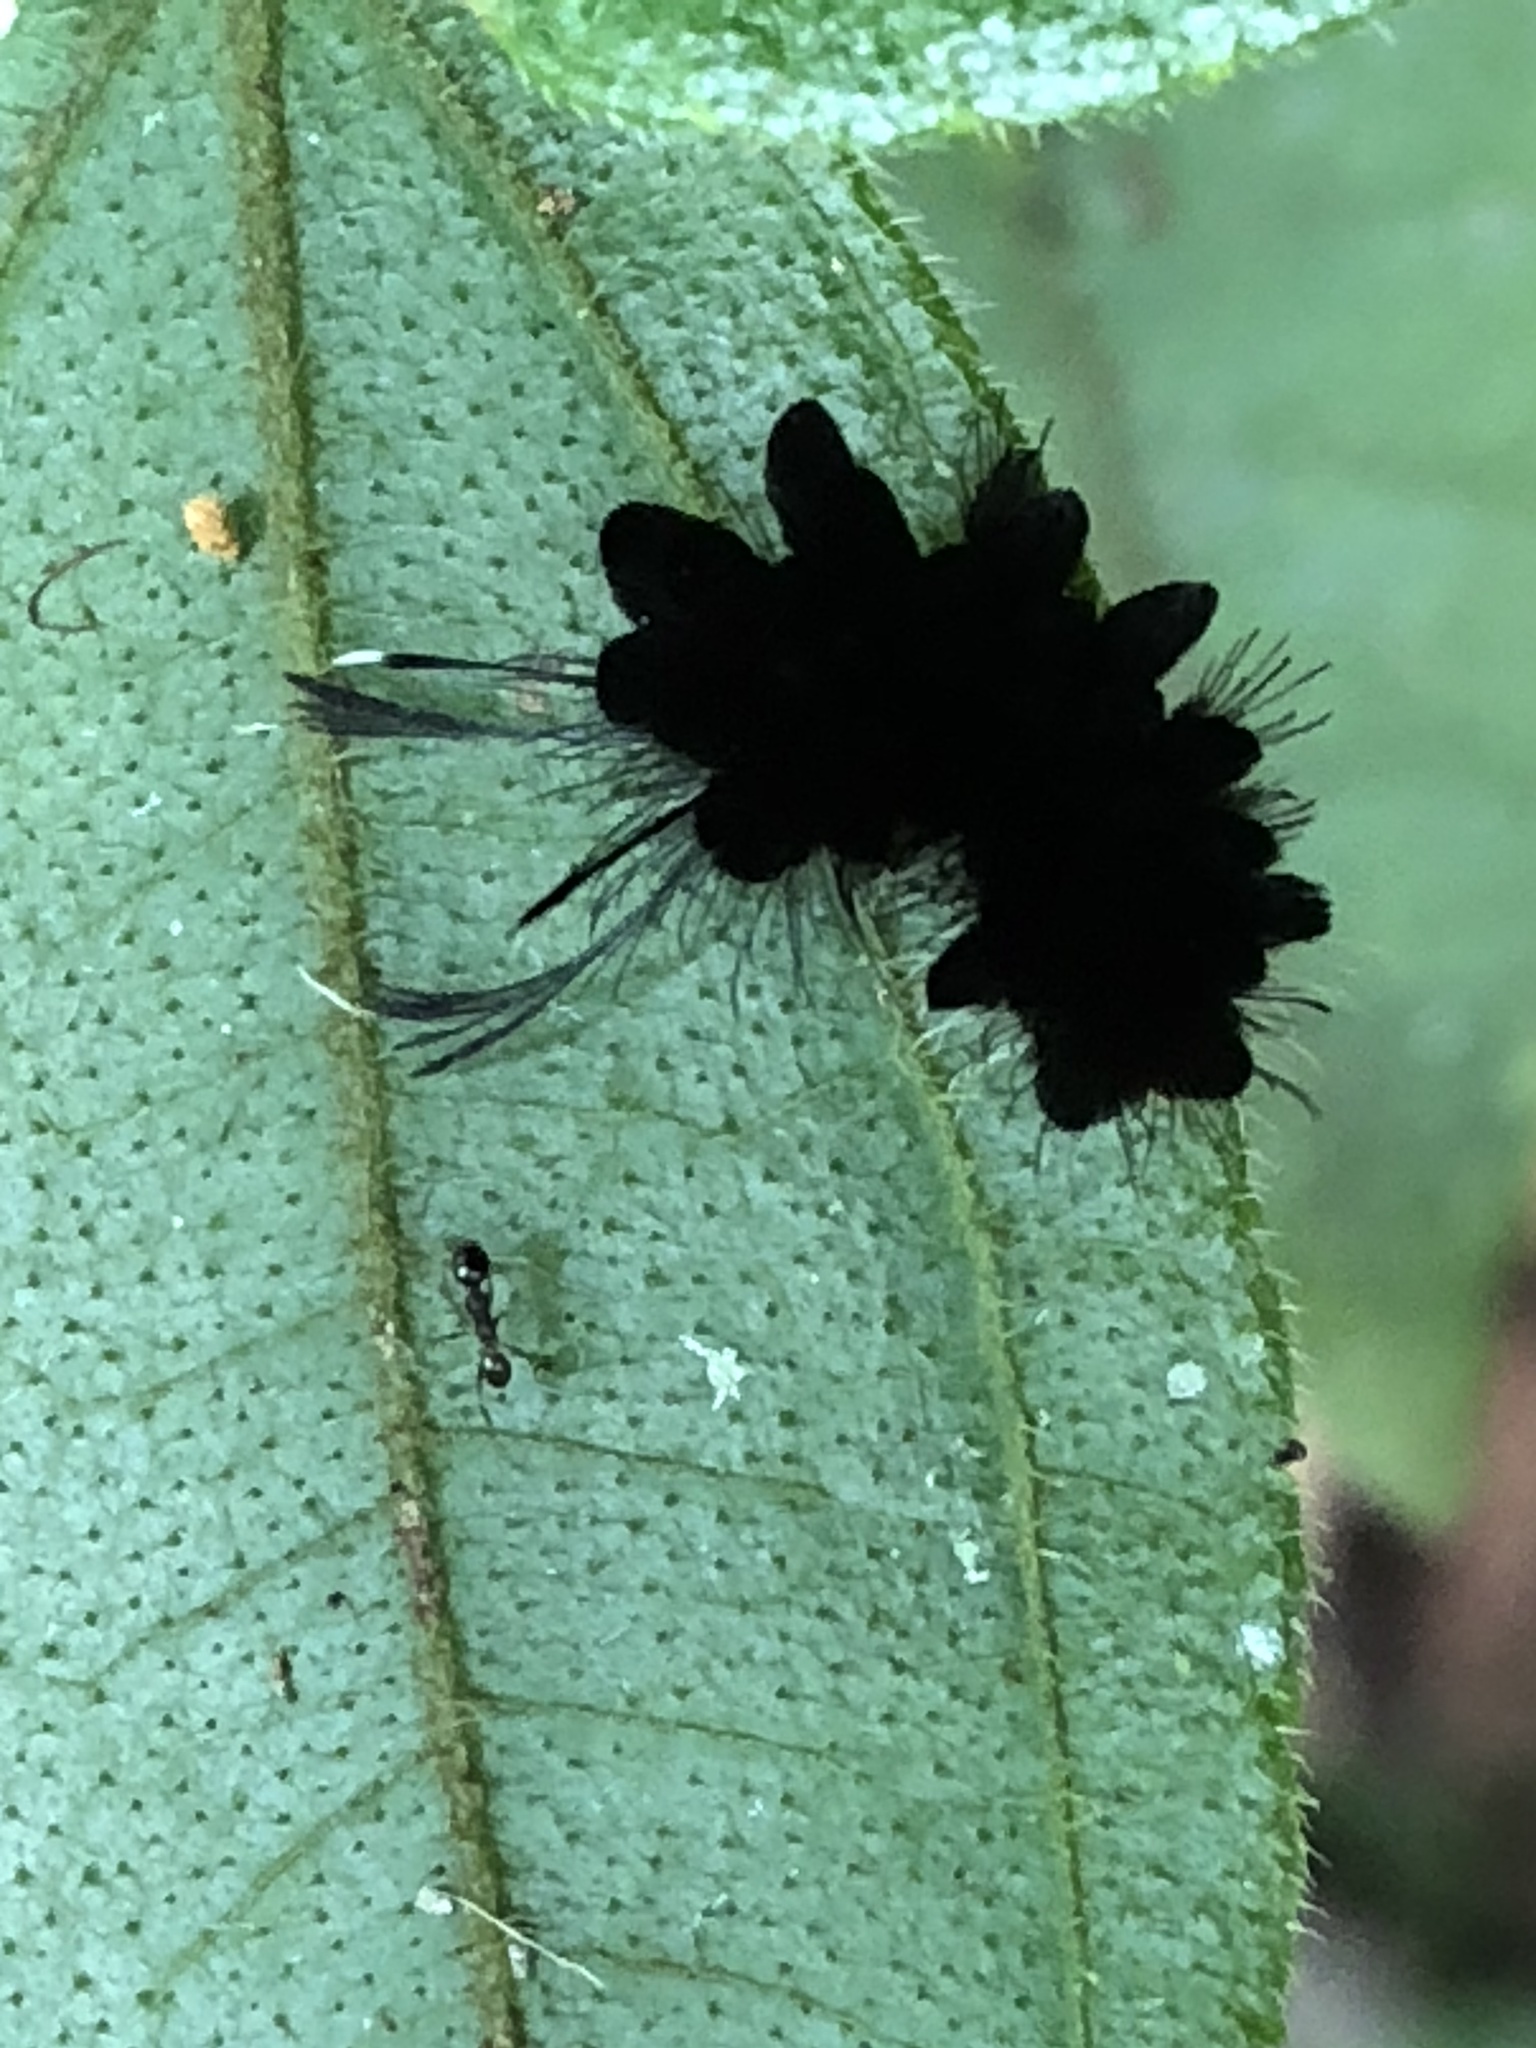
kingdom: Animalia
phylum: Arthropoda
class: Insecta
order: Lepidoptera
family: Limacodidae
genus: Phobetron
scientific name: Phobetron hipparchia
